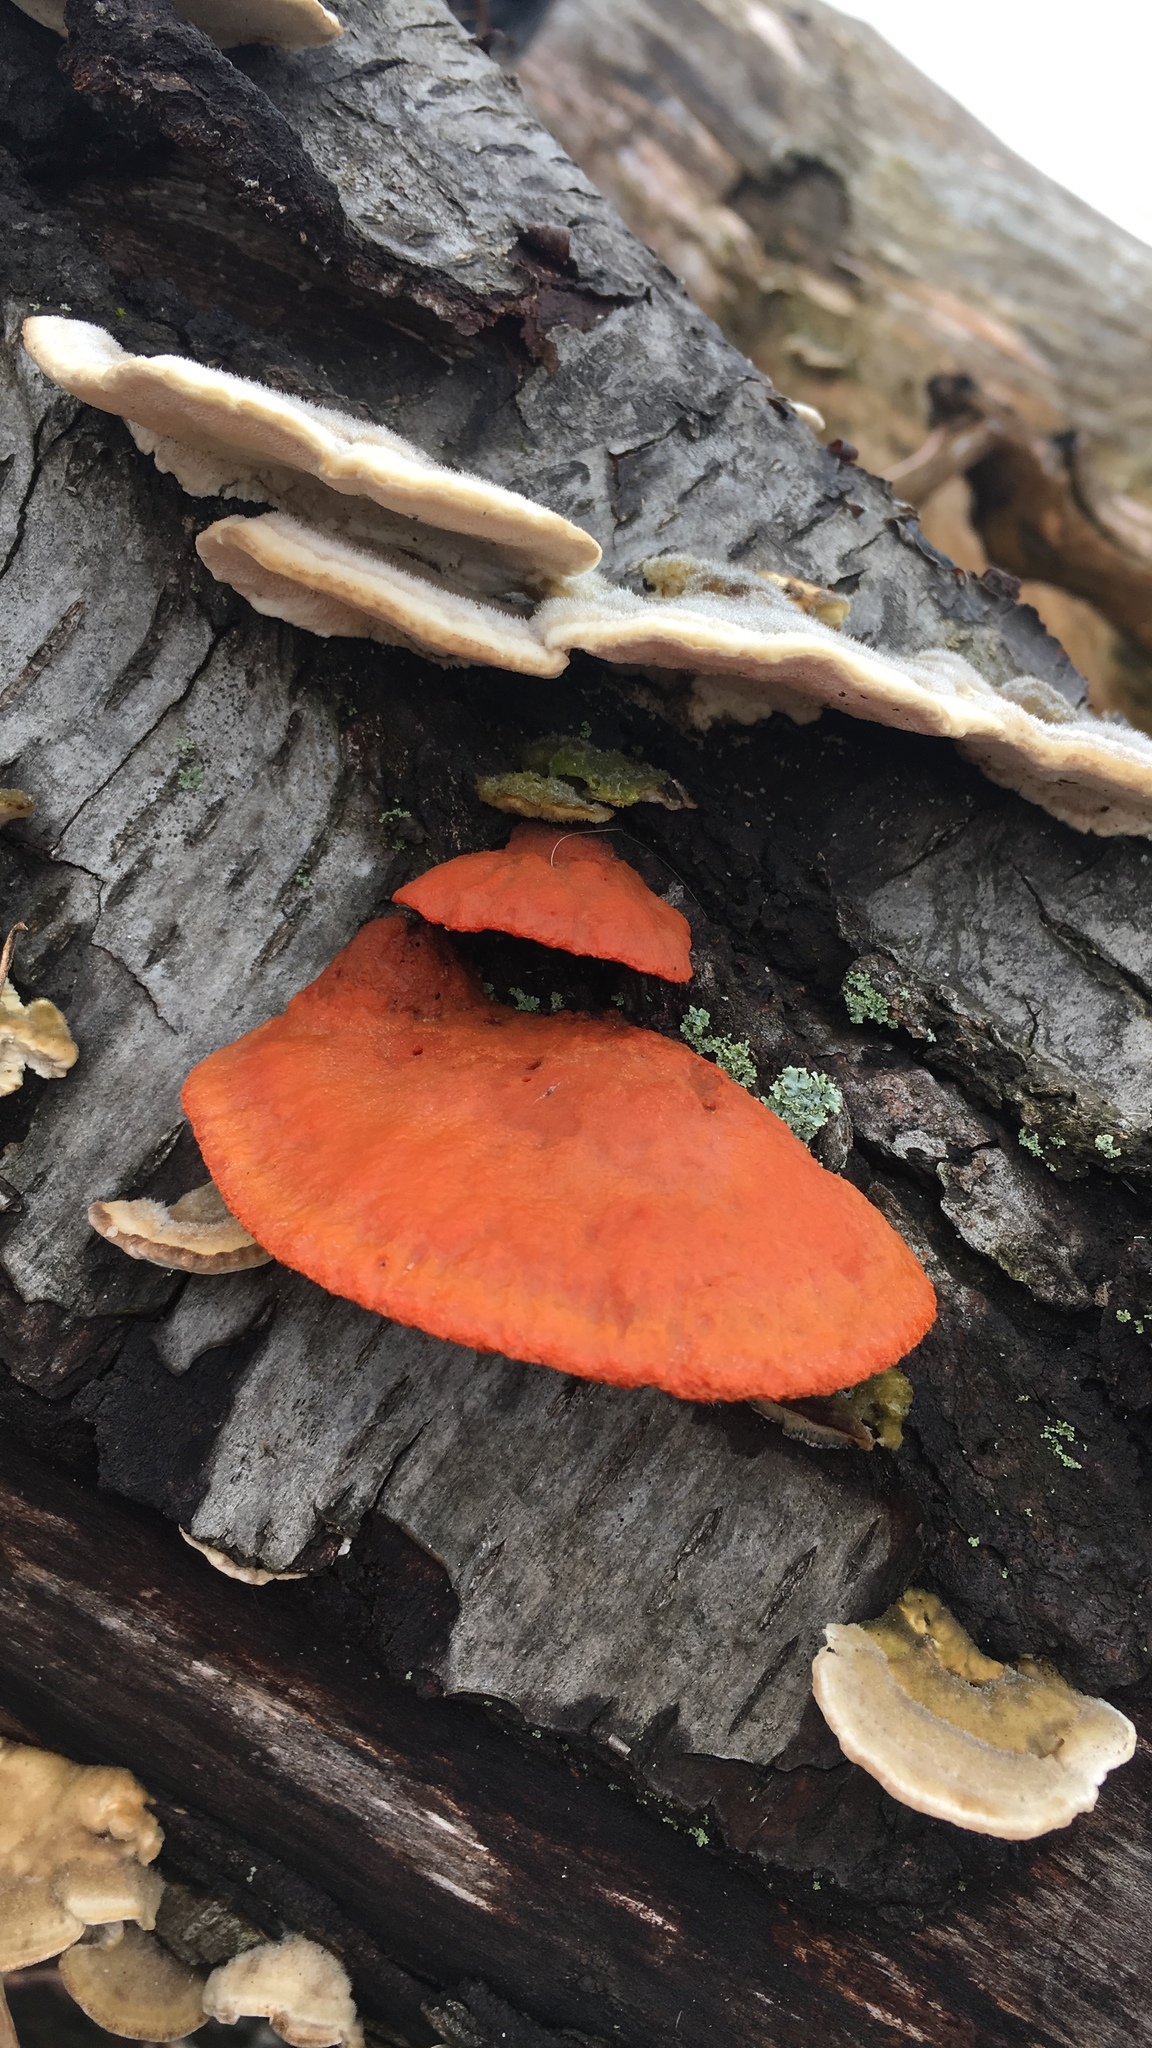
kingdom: Fungi
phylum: Basidiomycota
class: Agaricomycetes
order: Polyporales
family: Polyporaceae
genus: Trametes
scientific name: Trametes cinnabarina
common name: Northern cinnabar polypore
